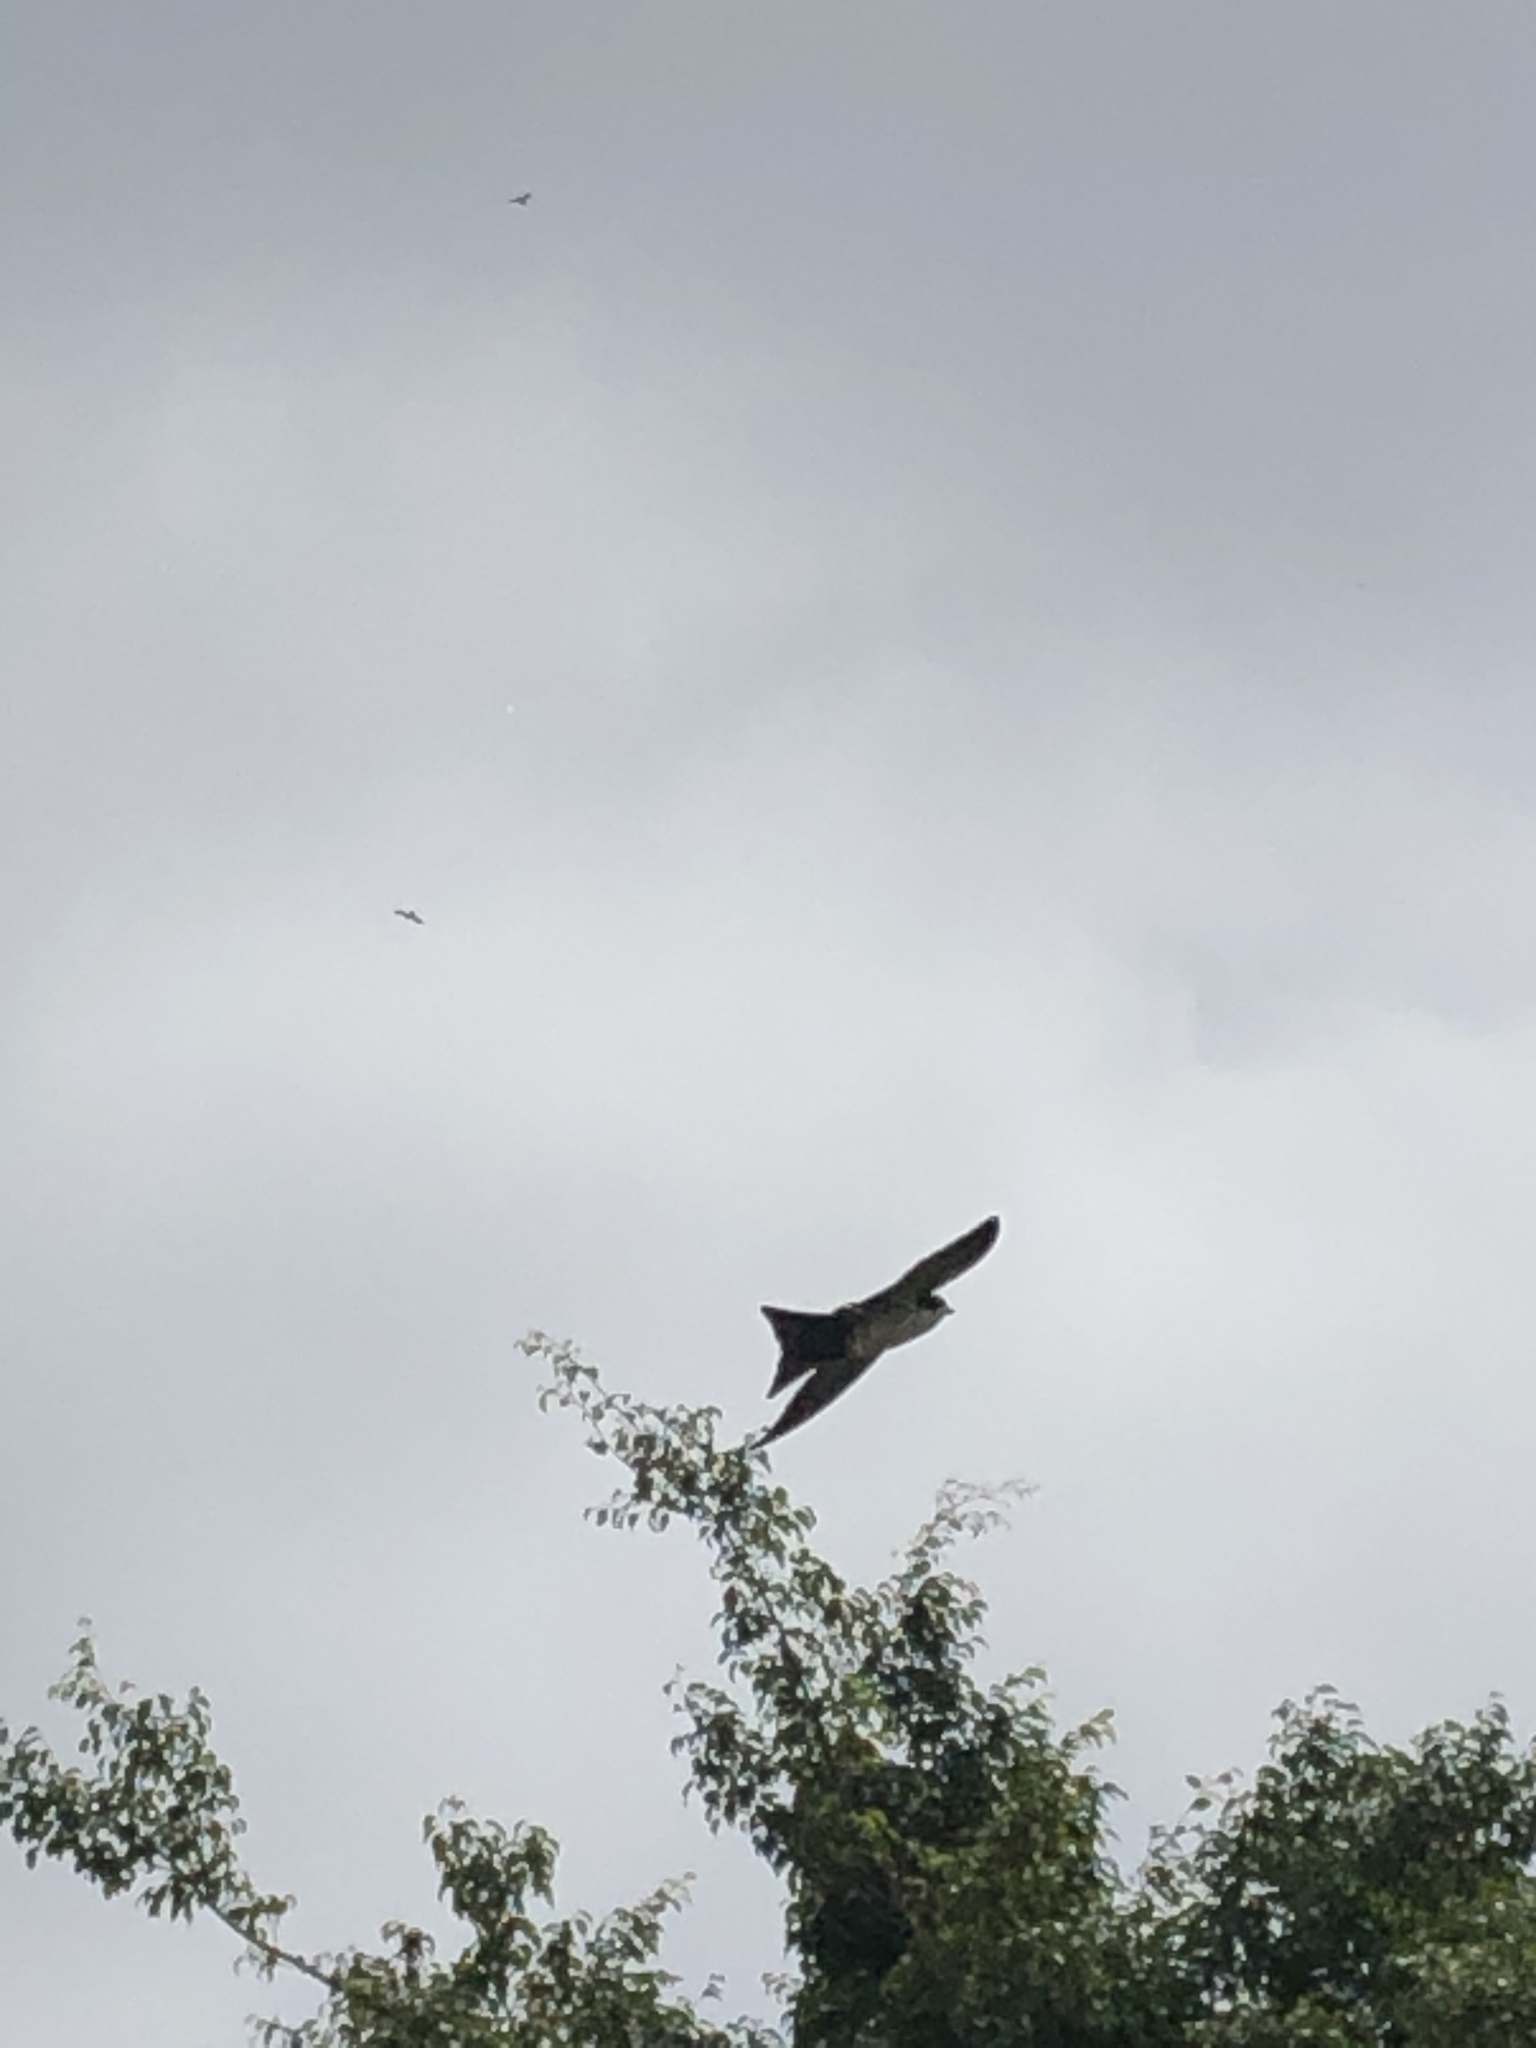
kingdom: Animalia
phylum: Chordata
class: Aves
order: Passeriformes
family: Hirundinidae
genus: Notiochelidon
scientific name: Notiochelidon cyanoleuca
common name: Blue-and-white swallow
